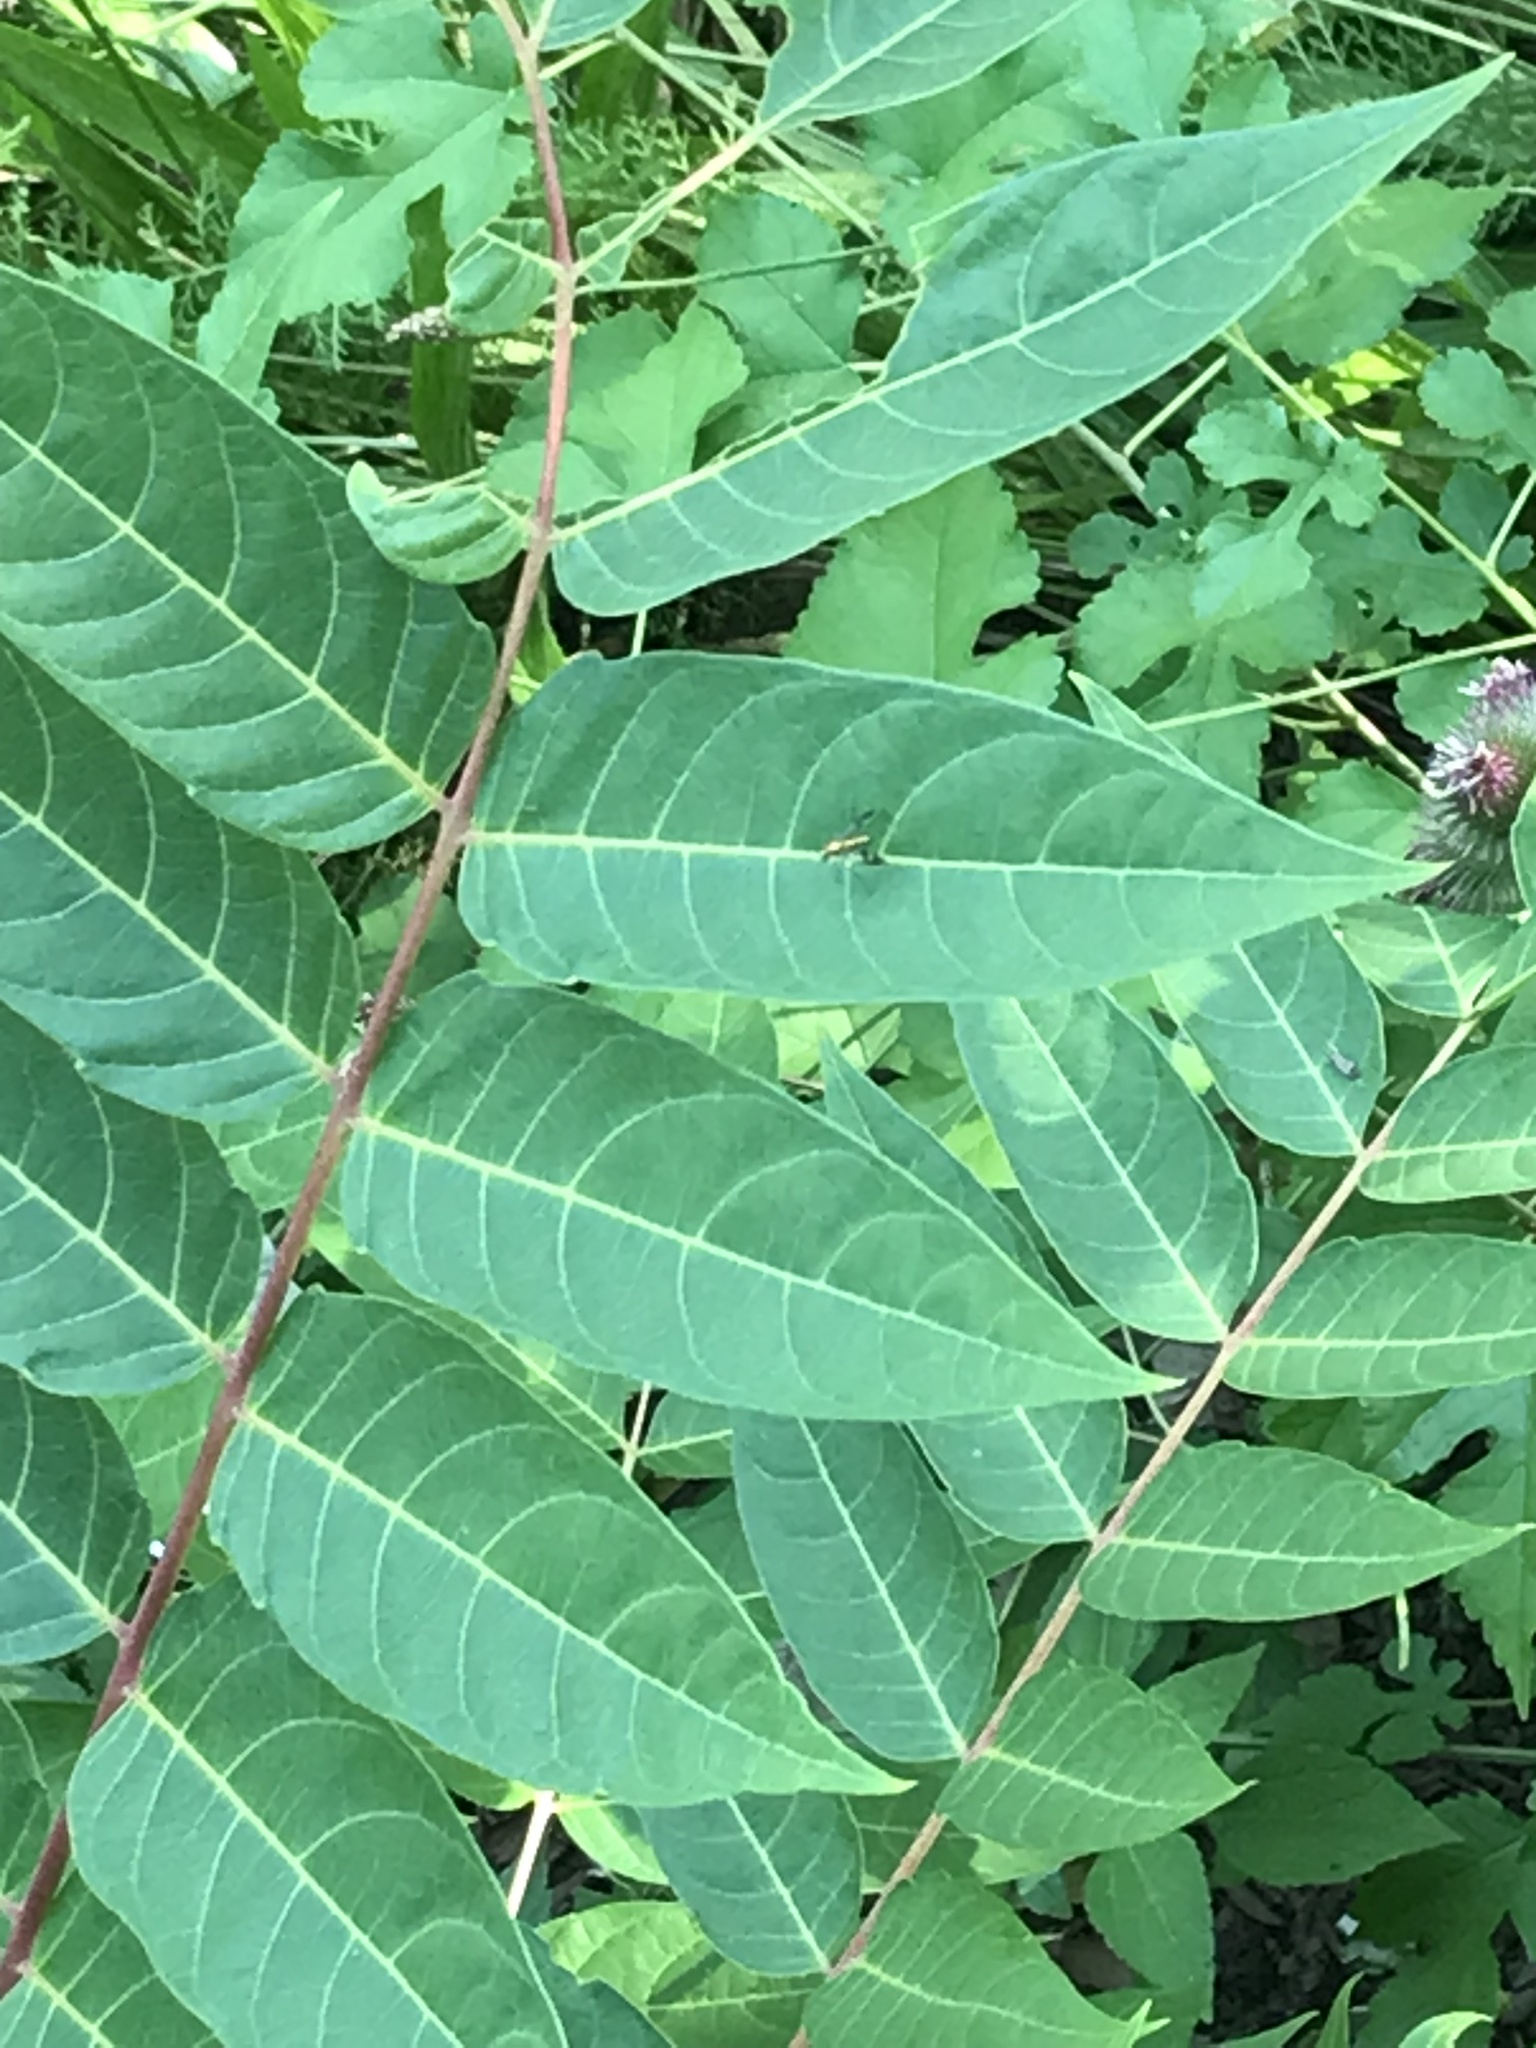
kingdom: Animalia
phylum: Arthropoda
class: Insecta
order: Diptera
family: Dolichopodidae
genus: Condylostylus
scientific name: Condylostylus
